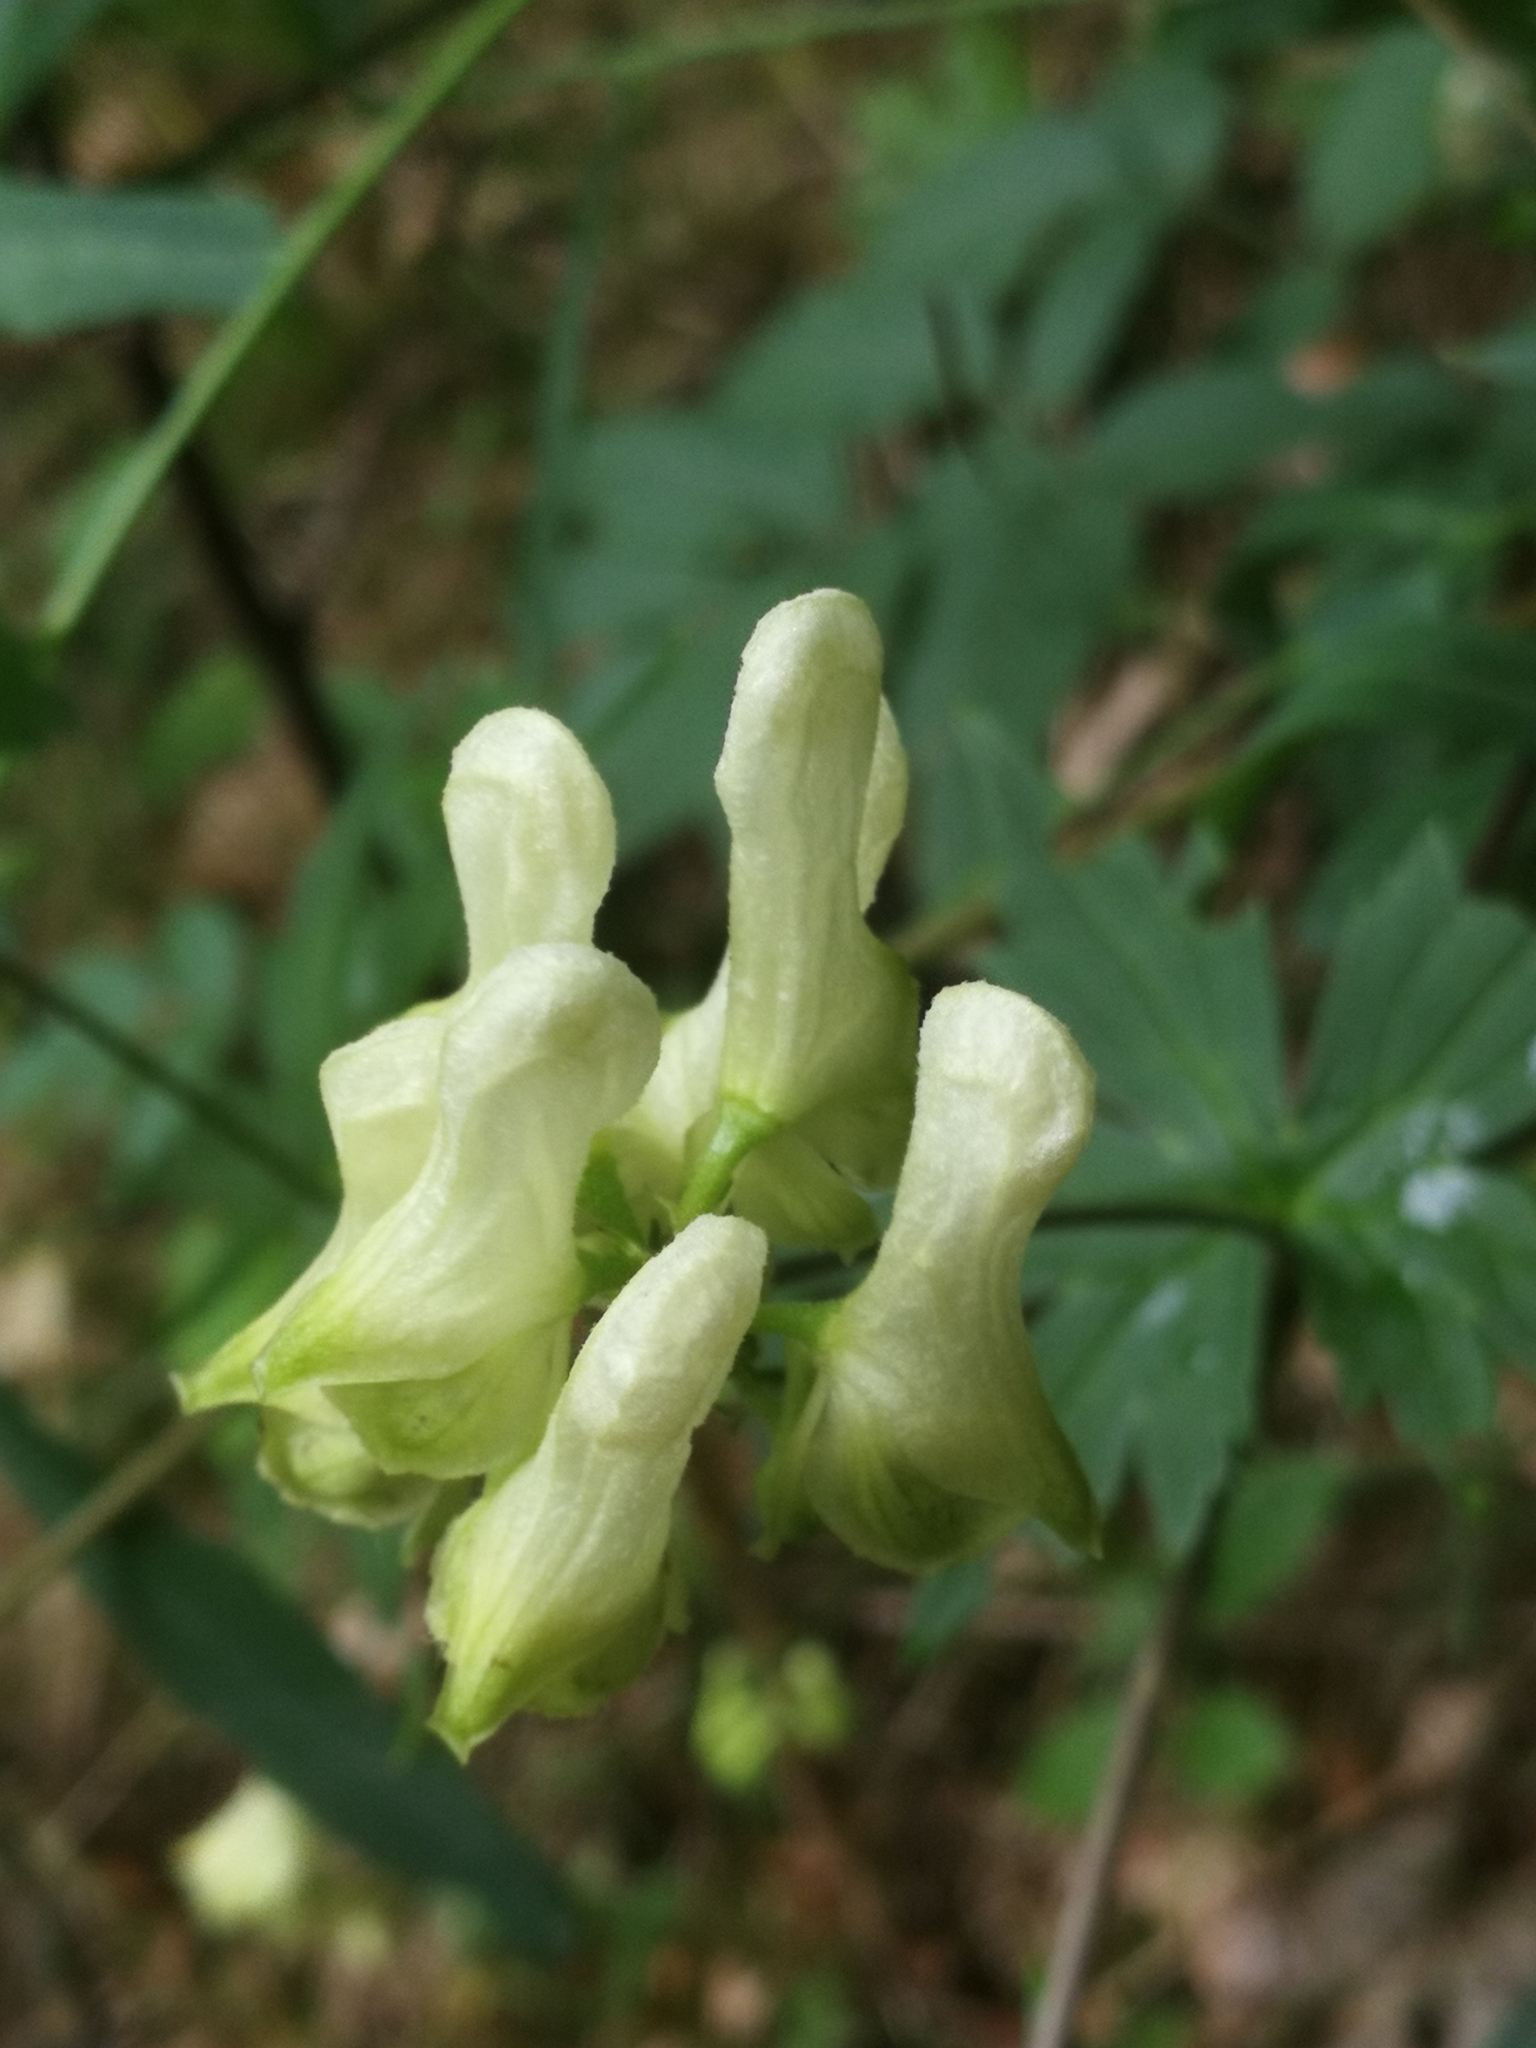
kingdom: Plantae
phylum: Tracheophyta
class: Magnoliopsida
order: Ranunculales
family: Ranunculaceae
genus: Aconitum
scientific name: Aconitum lycoctonum
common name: Wolf's-bane
